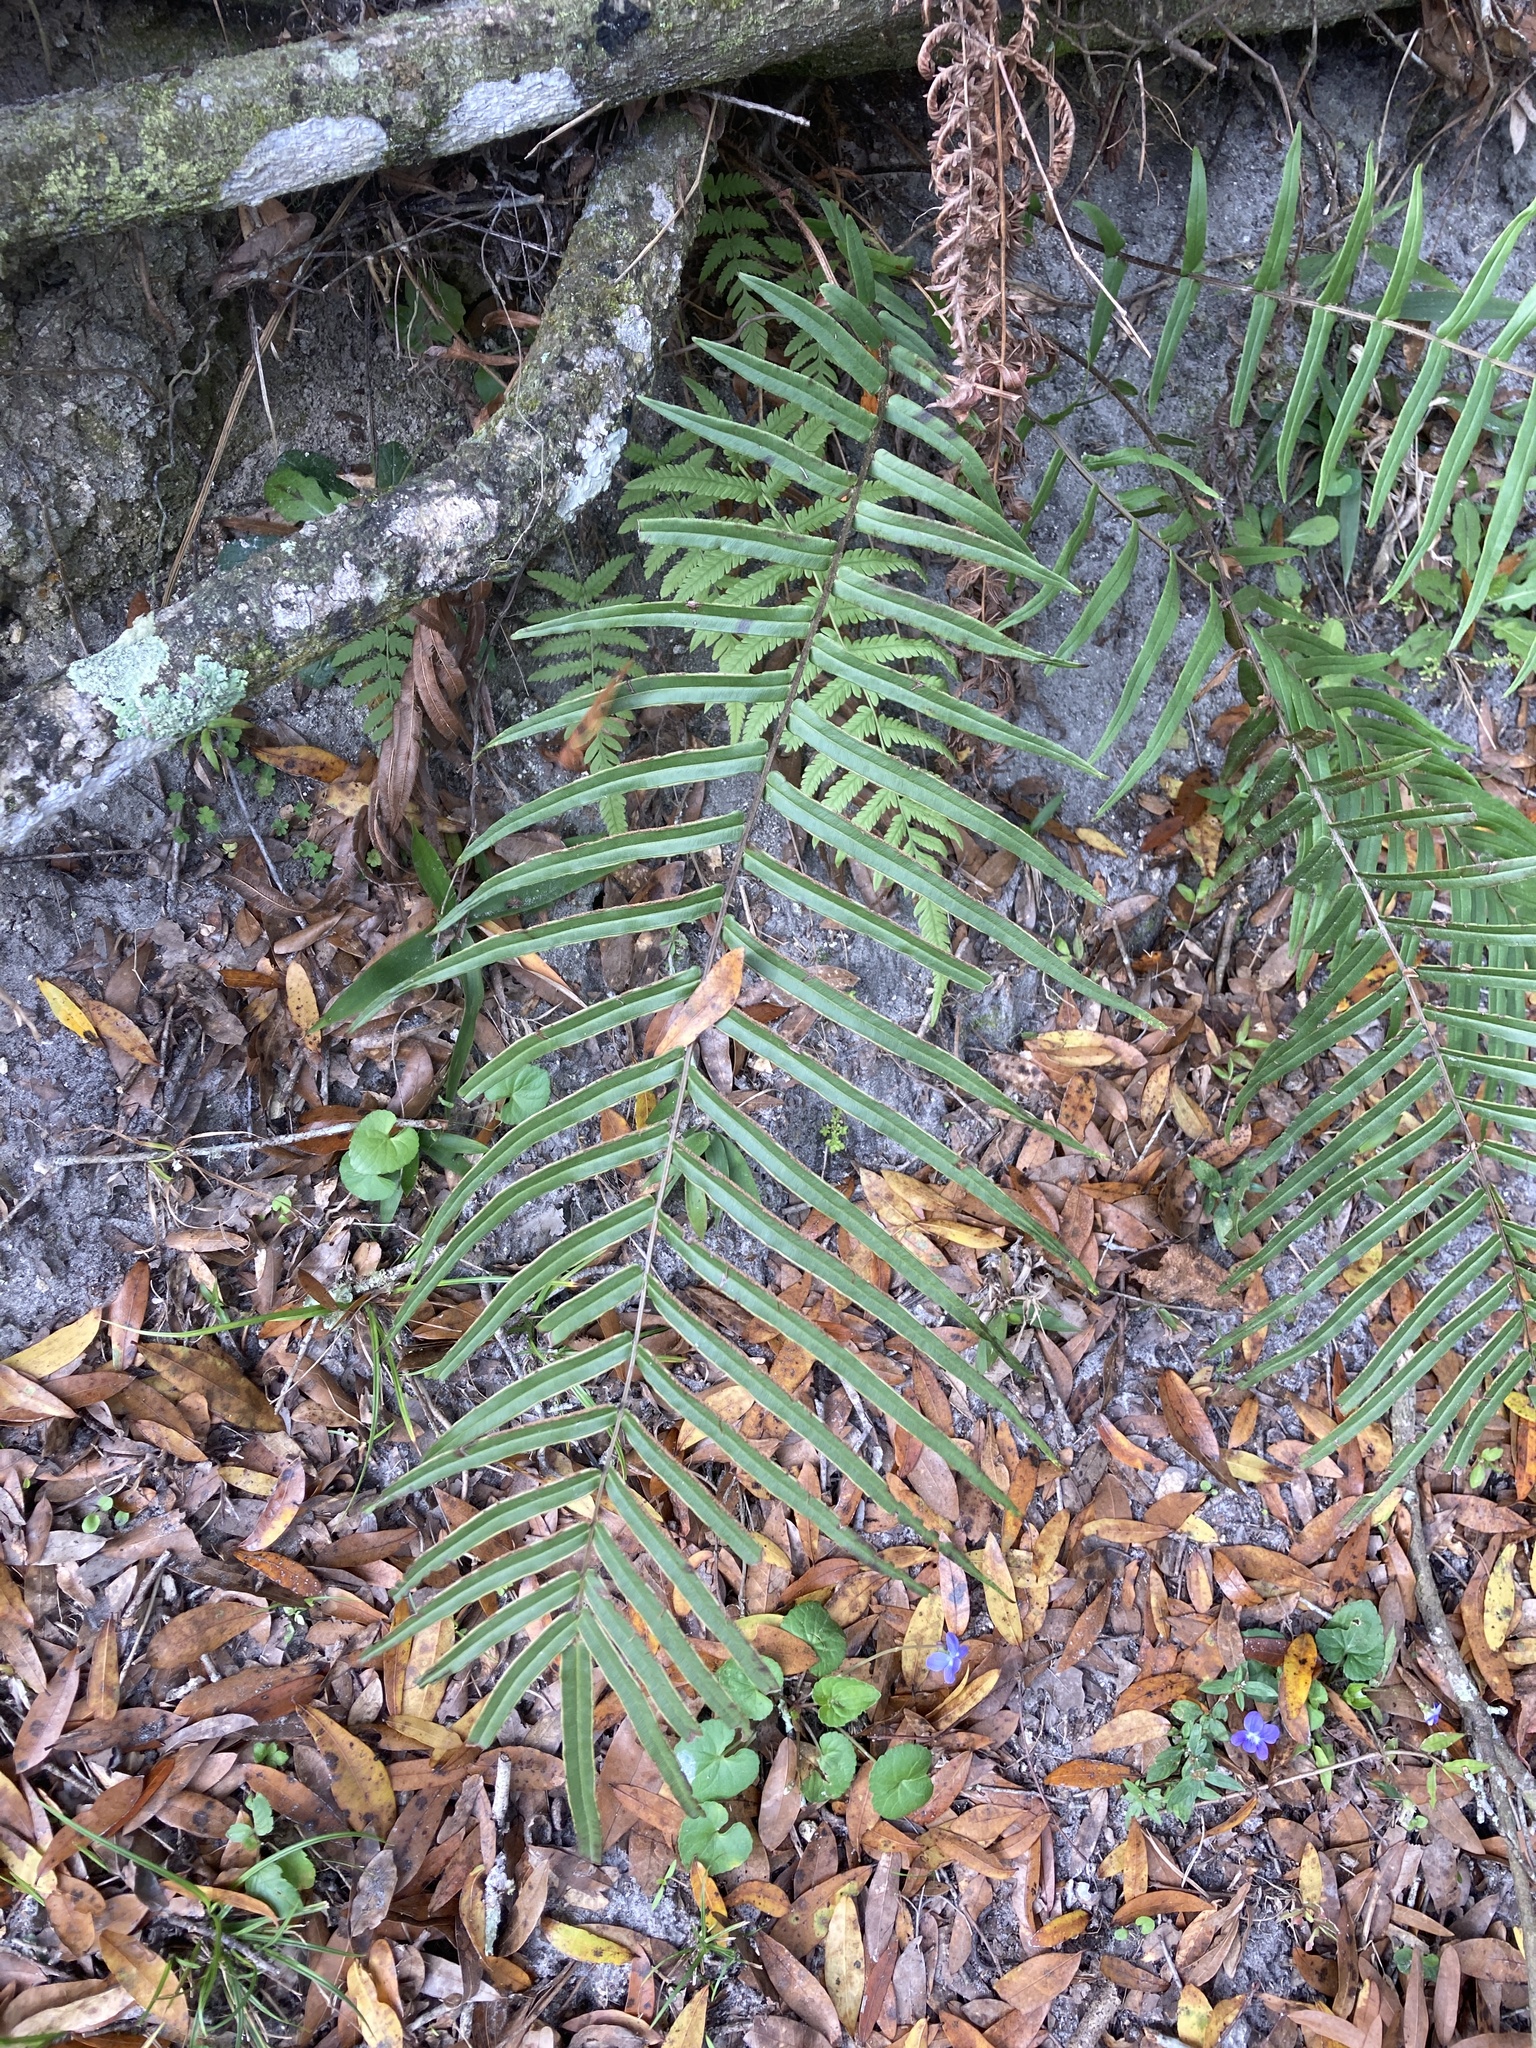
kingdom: Plantae
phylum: Tracheophyta
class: Polypodiopsida
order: Polypodiales
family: Pteridaceae
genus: Pteris
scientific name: Pteris vittata
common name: Ladder brake
